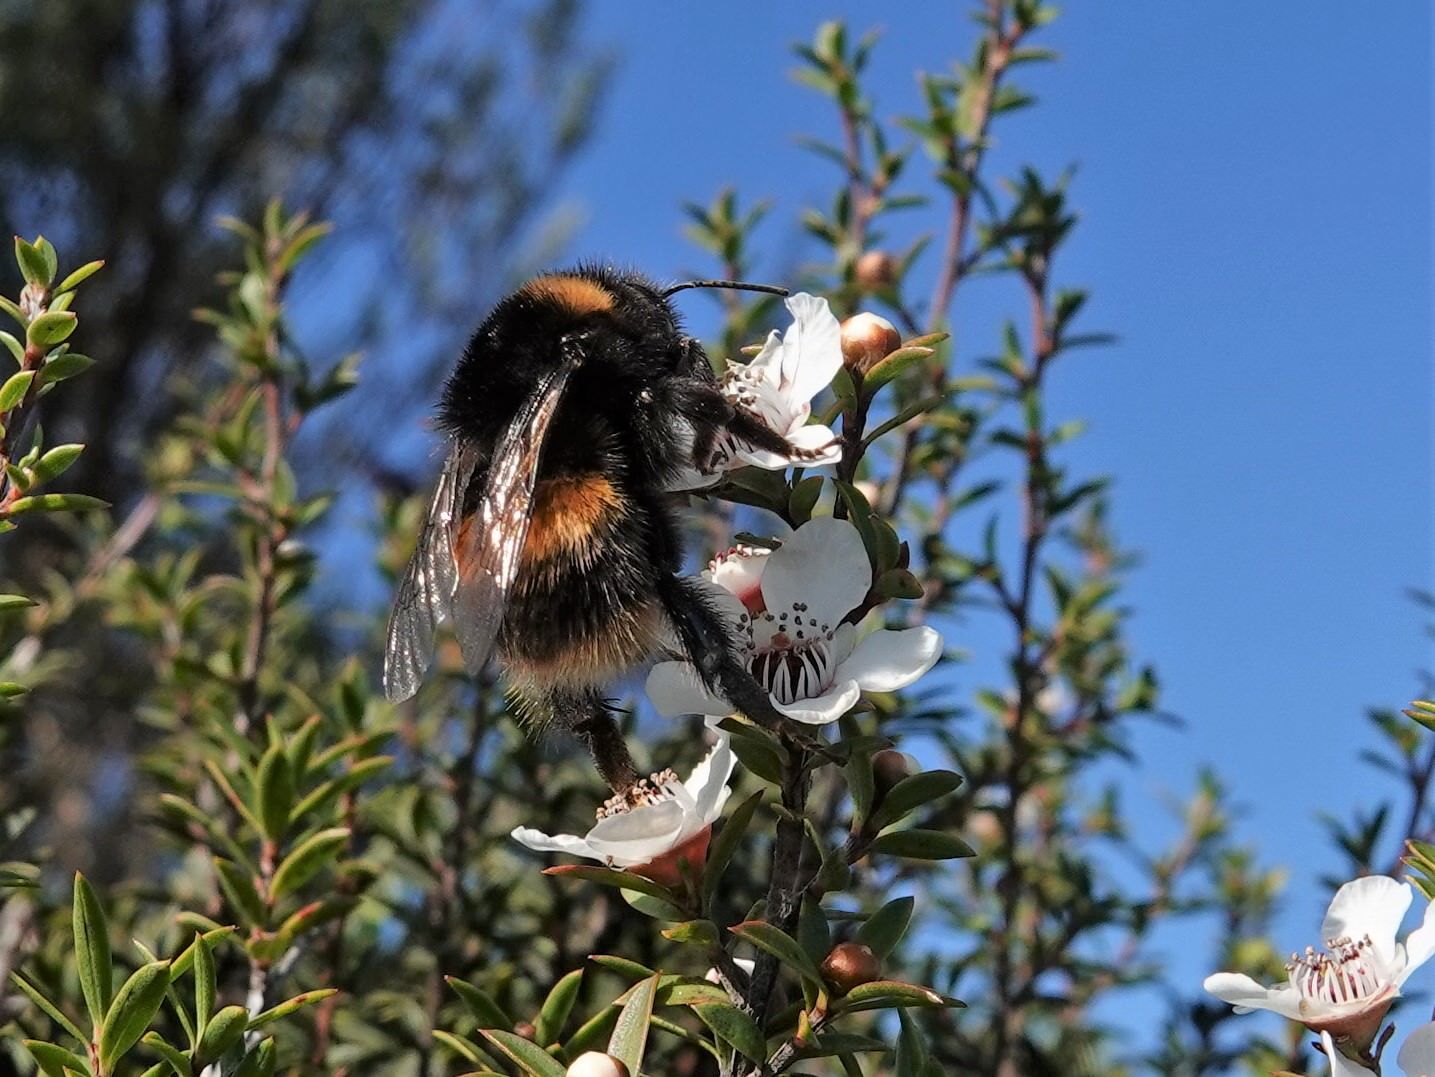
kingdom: Animalia
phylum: Arthropoda
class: Insecta
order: Hymenoptera
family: Apidae
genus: Bombus
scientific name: Bombus terrestris
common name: Buff-tailed bumblebee
